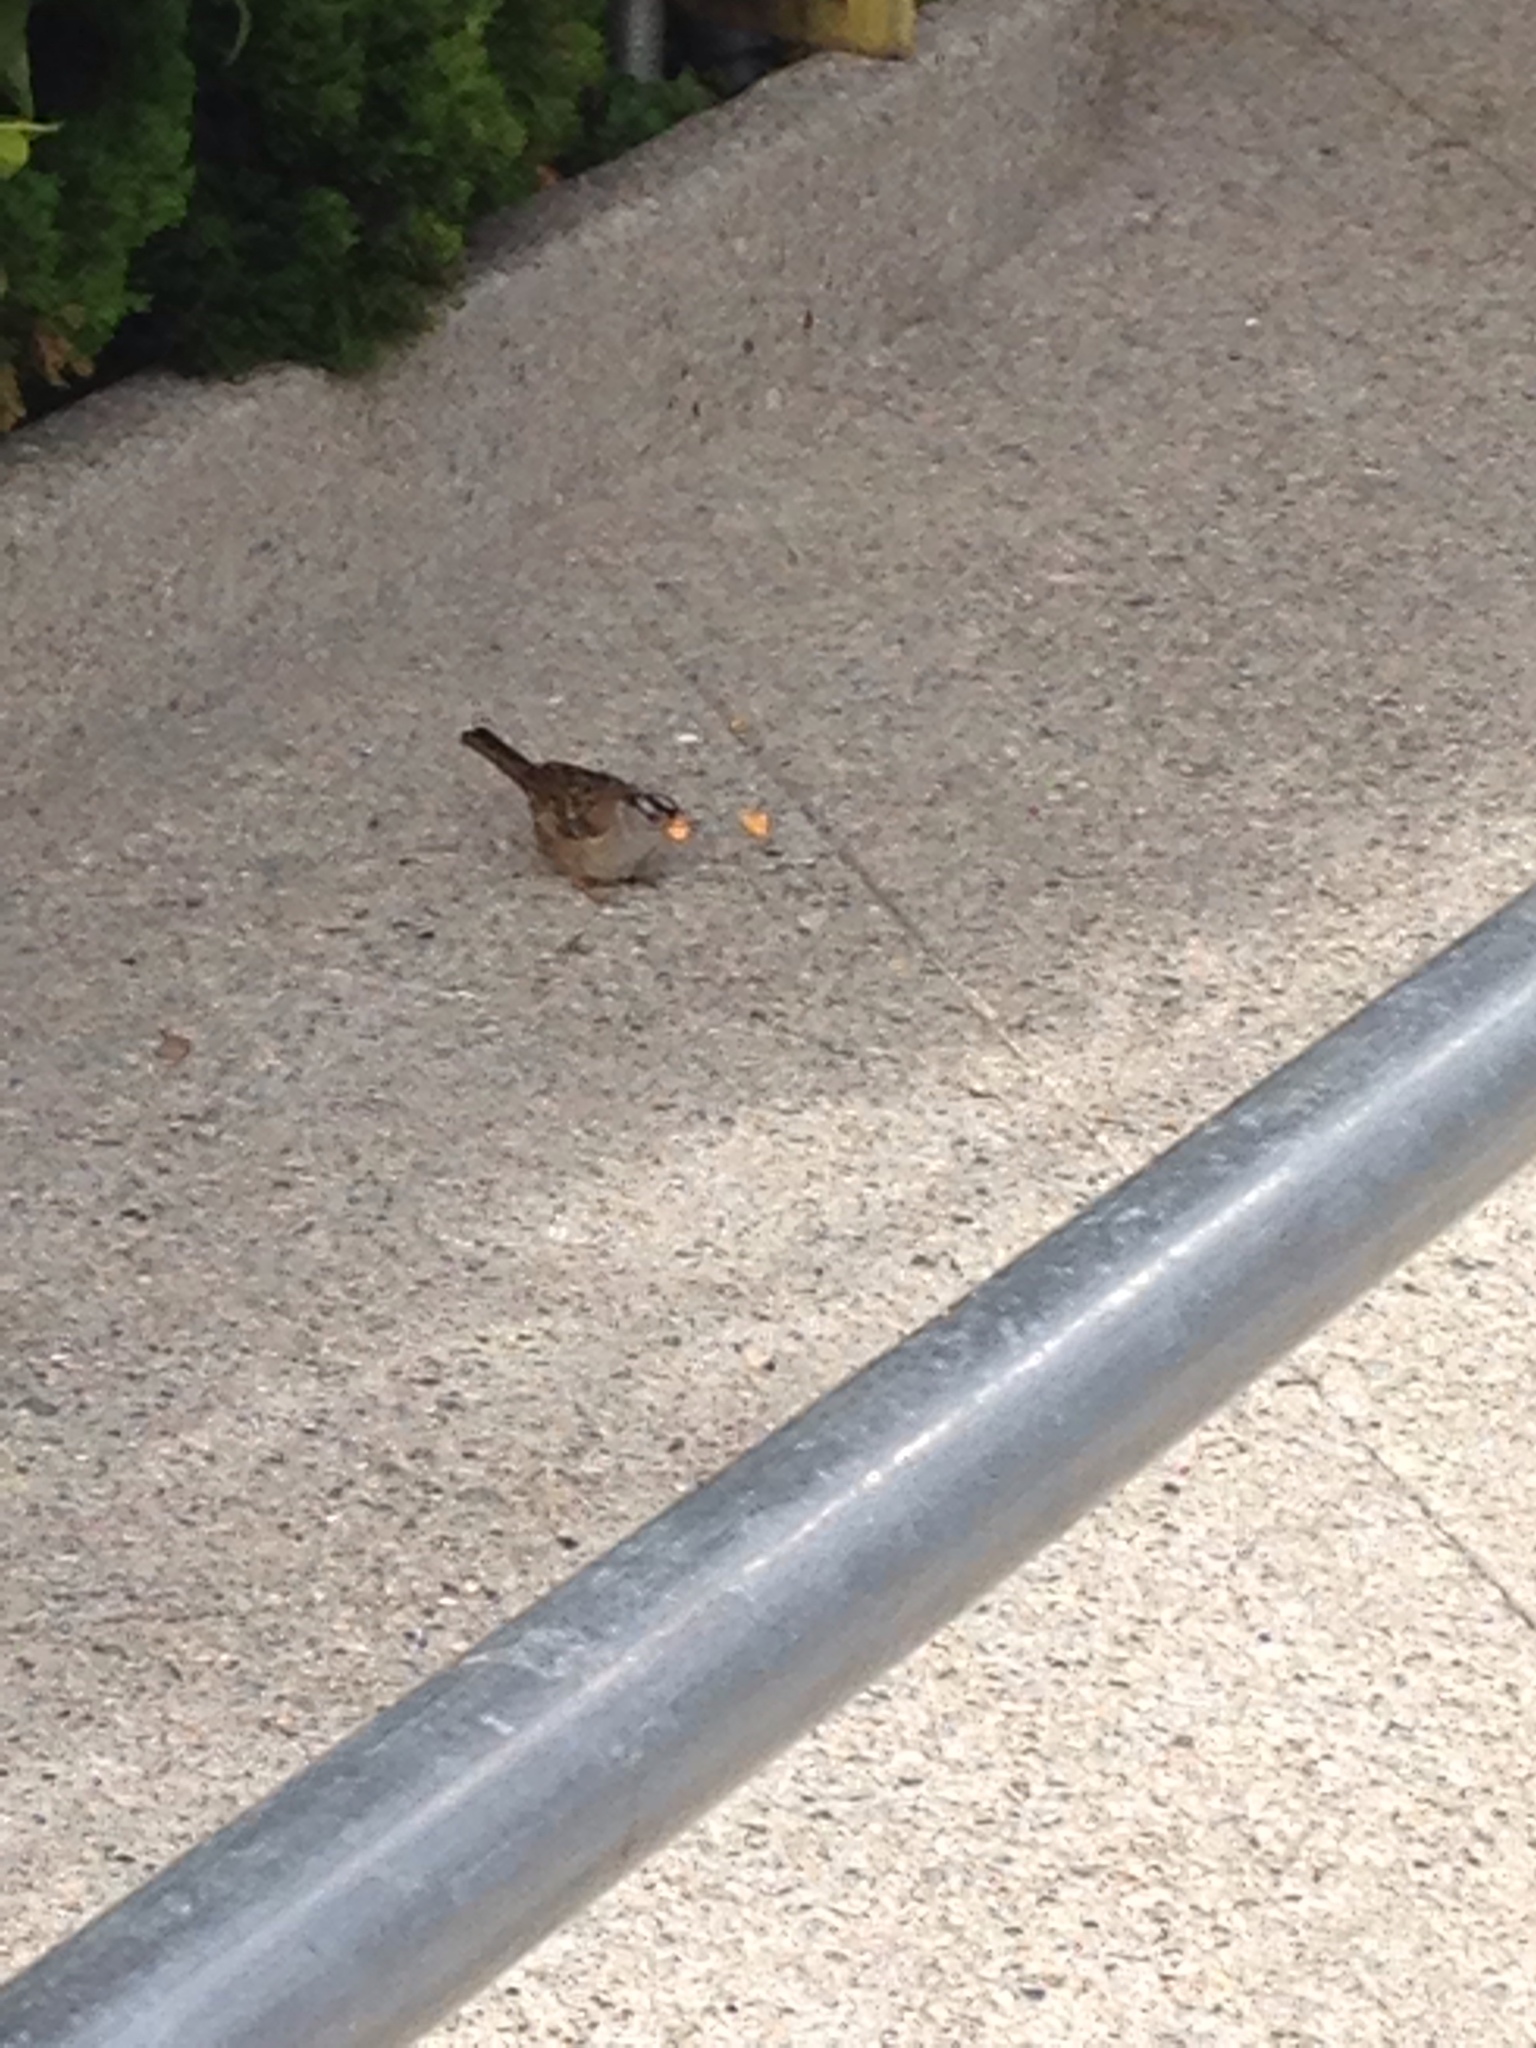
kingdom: Animalia
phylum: Chordata
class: Aves
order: Passeriformes
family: Passerellidae
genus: Zonotrichia
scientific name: Zonotrichia leucophrys
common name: White-crowned sparrow
